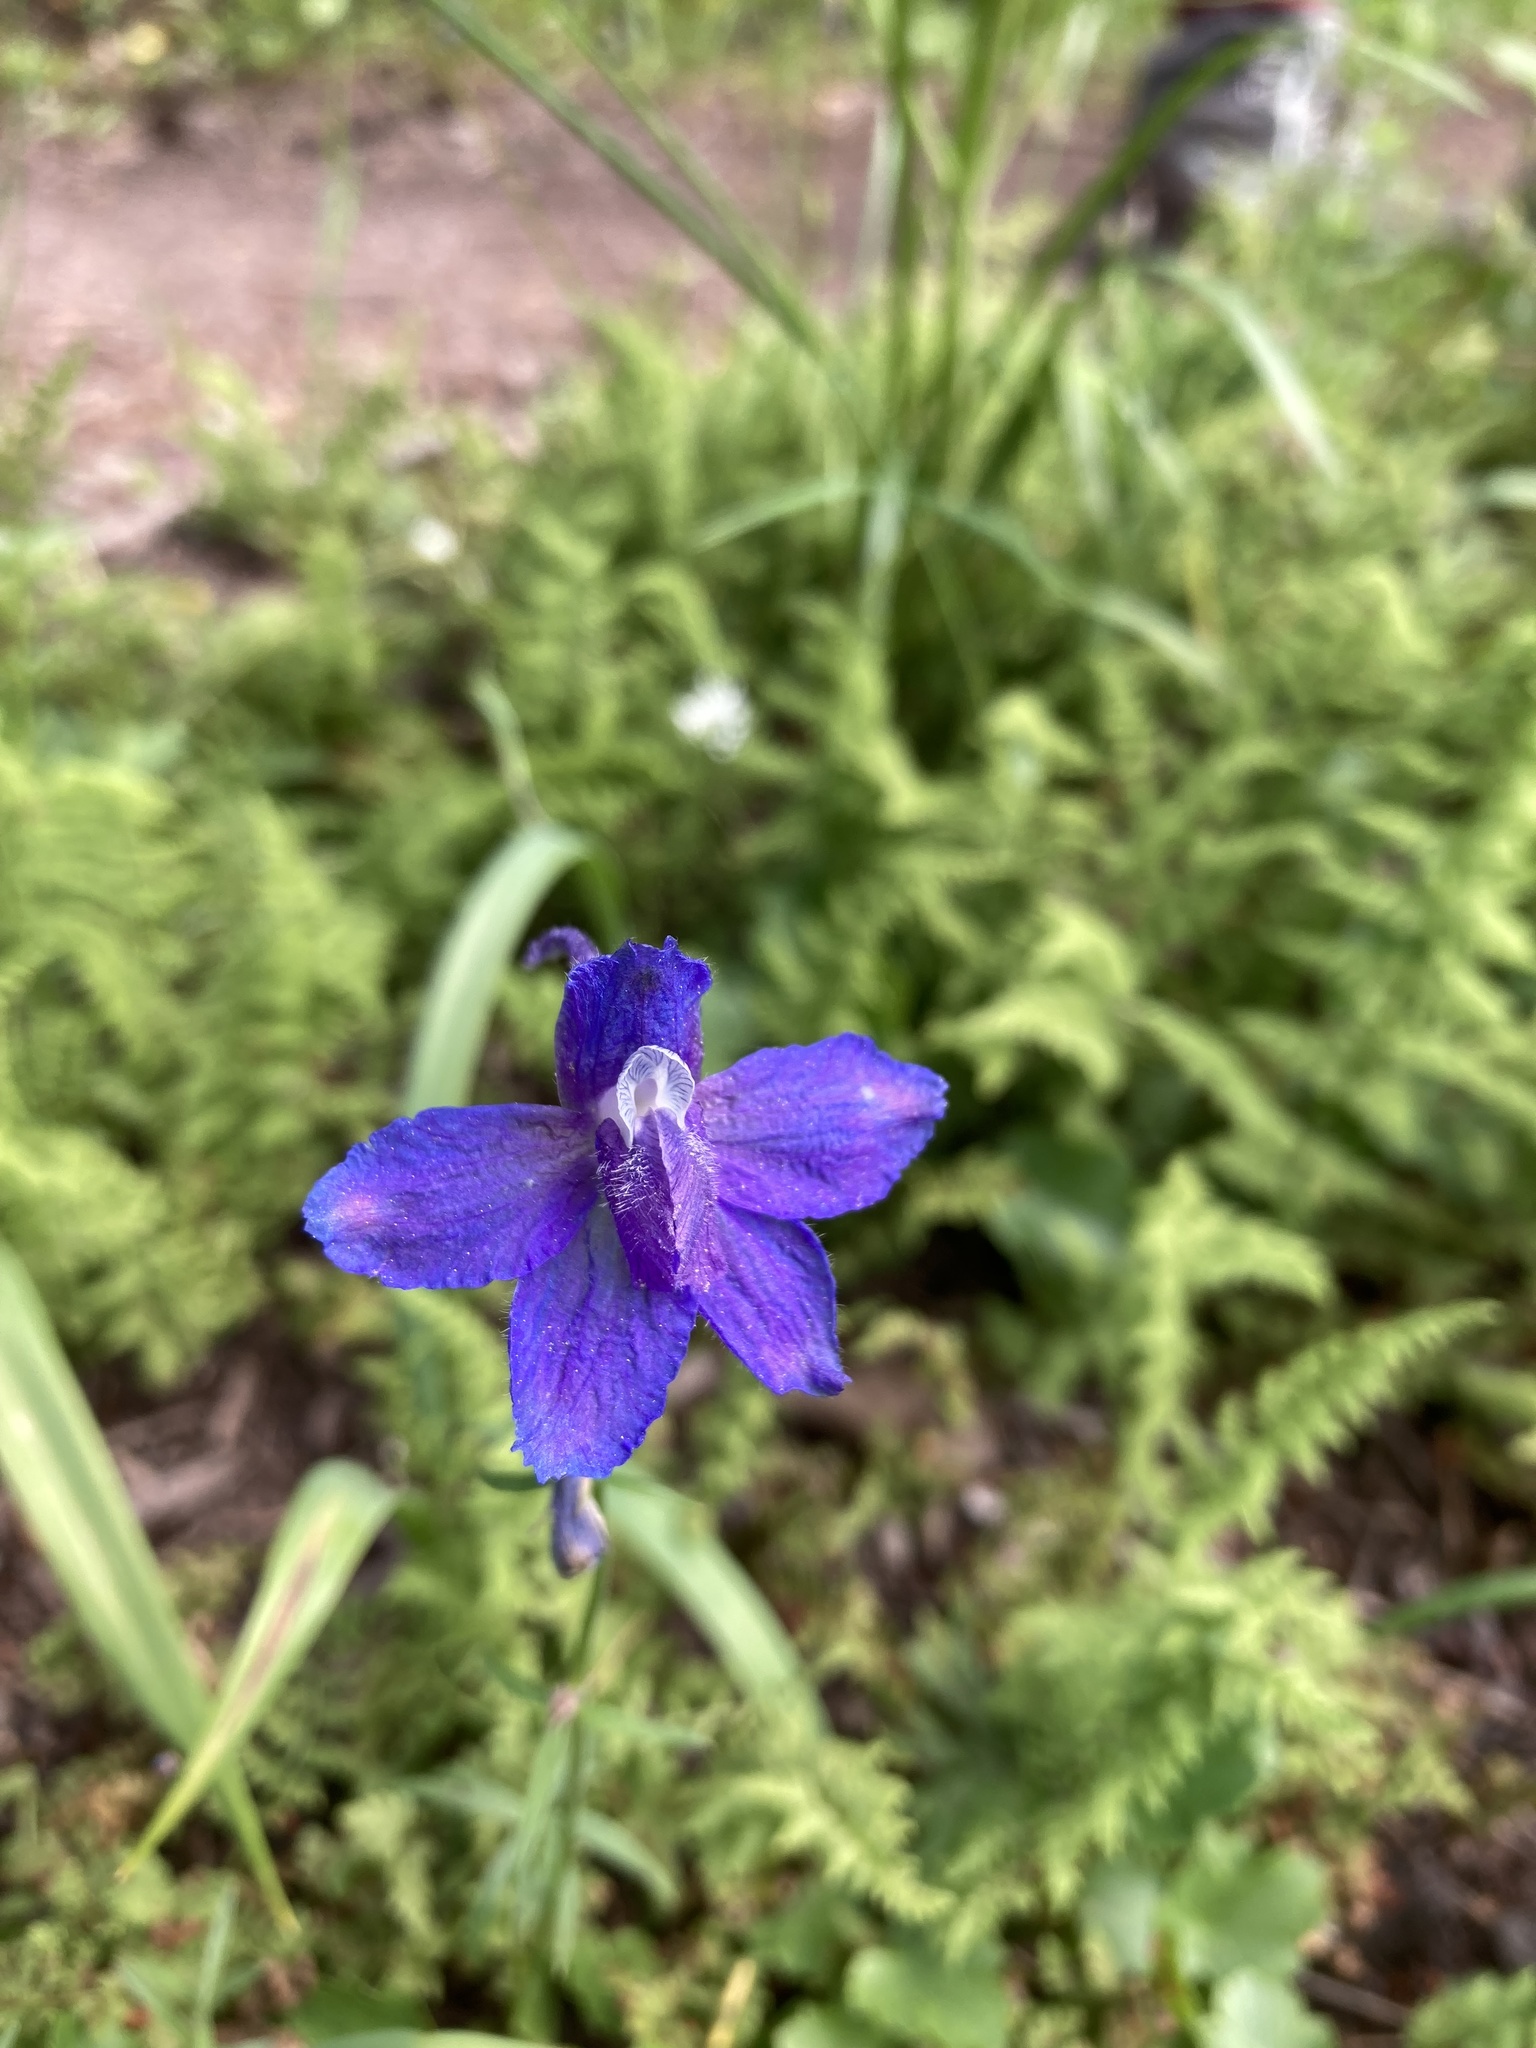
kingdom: Plantae
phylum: Tracheophyta
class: Magnoliopsida
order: Ranunculales
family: Ranunculaceae
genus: Delphinium
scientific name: Delphinium bicolor
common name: Low larkspur
